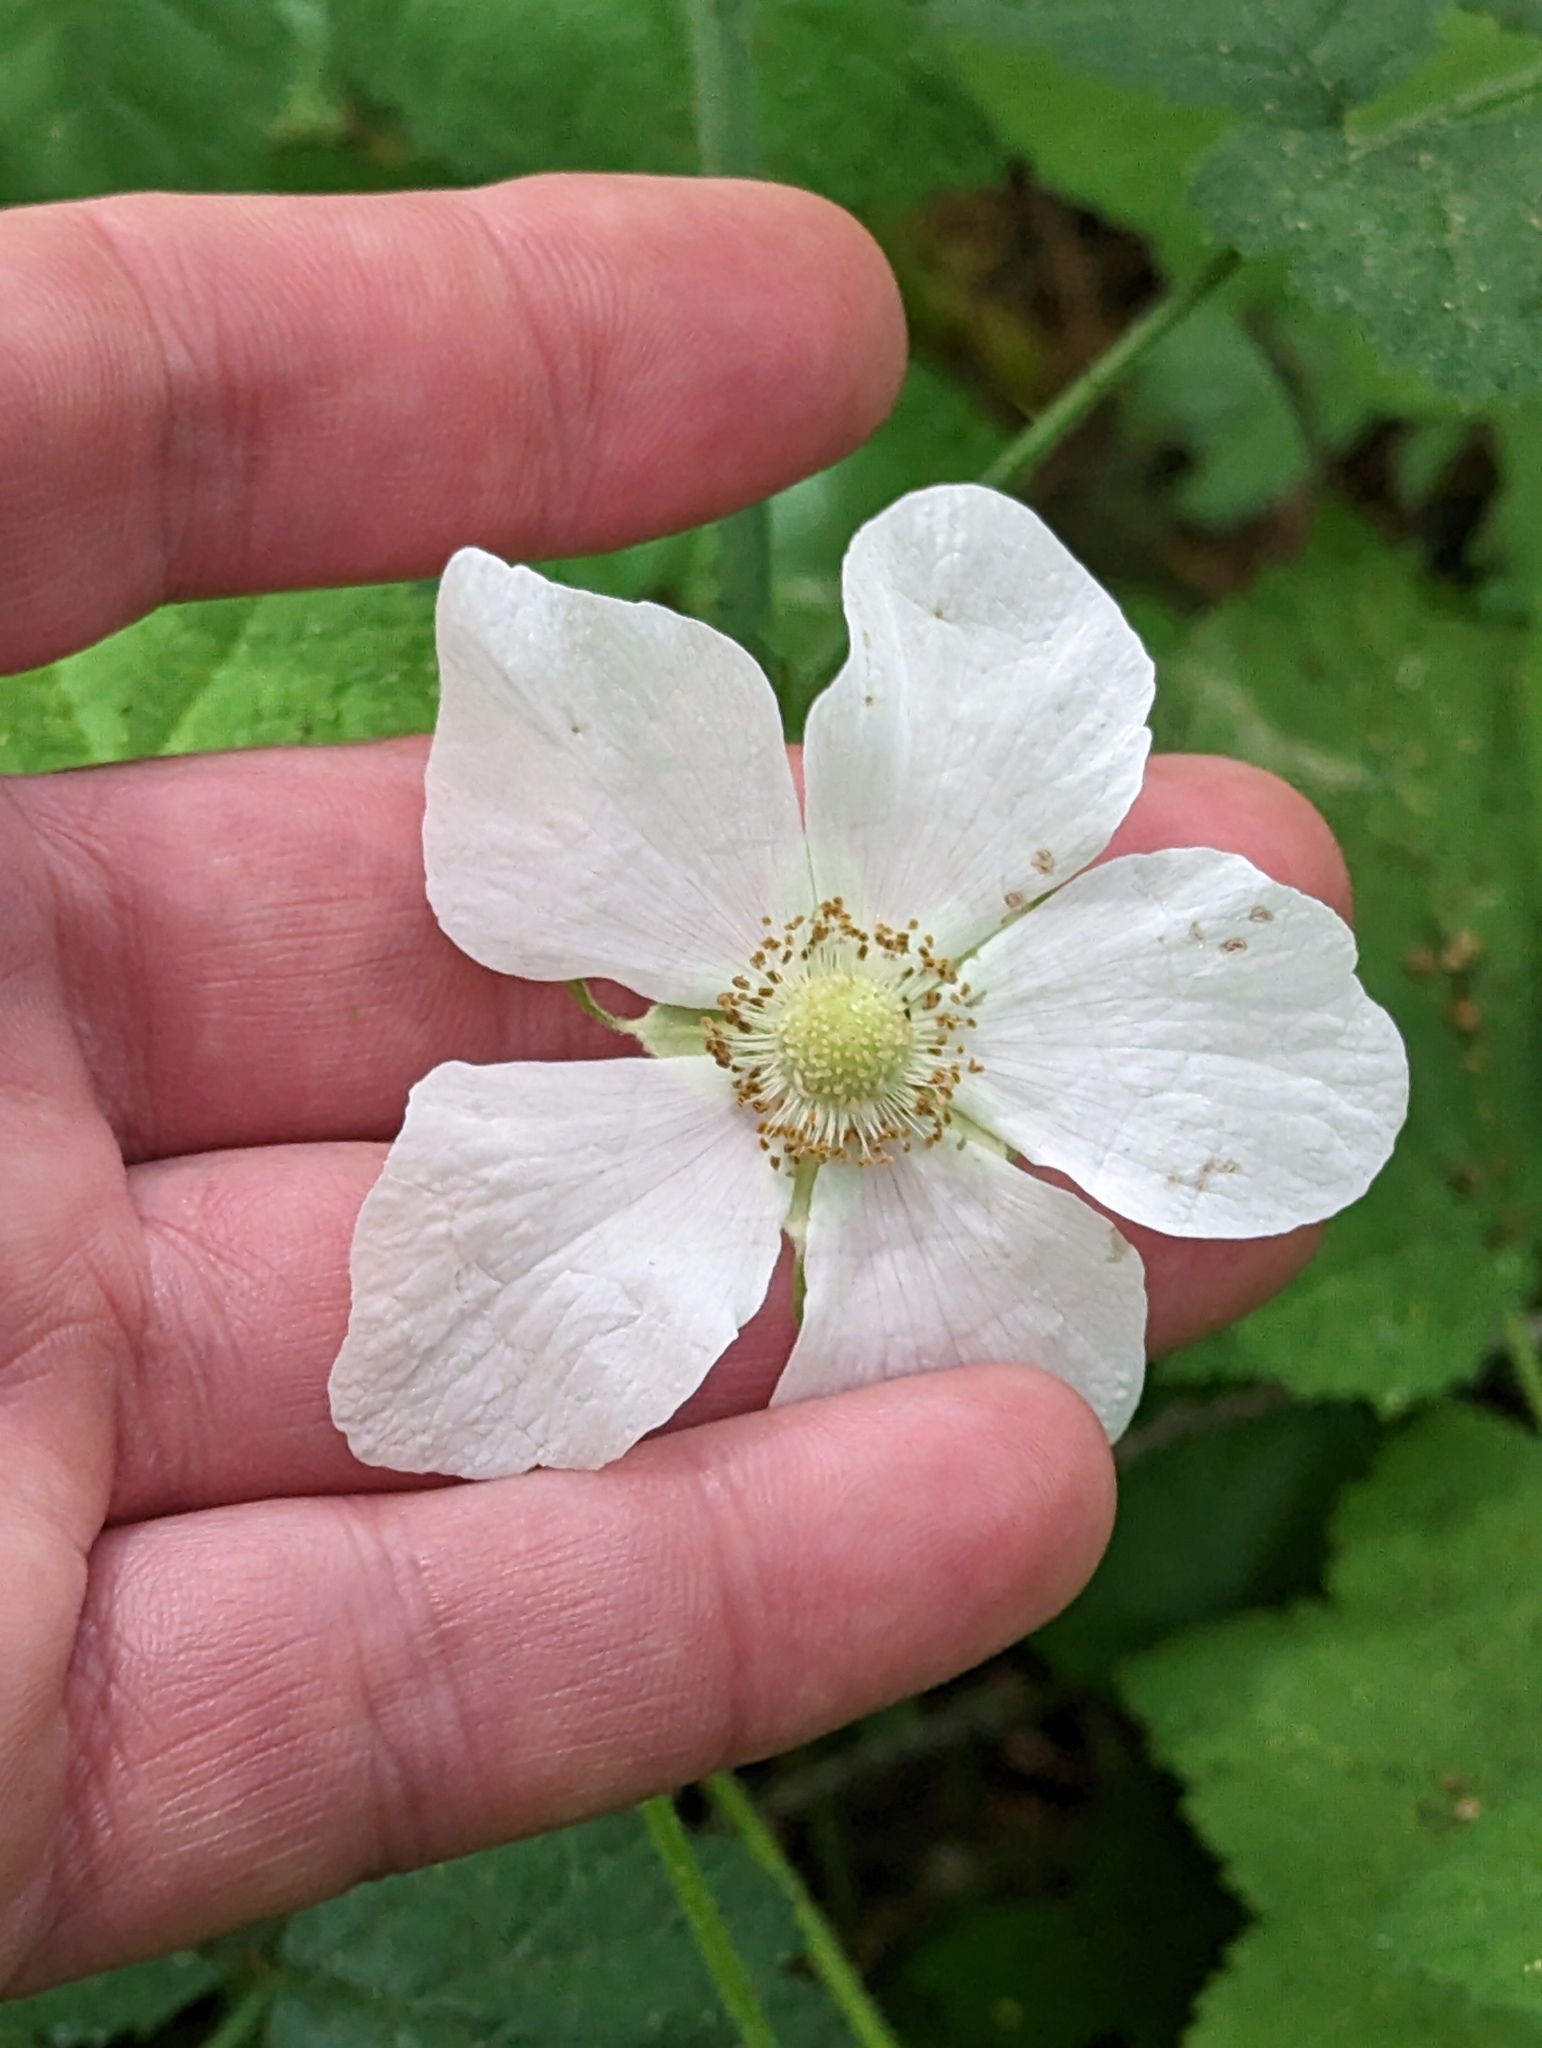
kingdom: Plantae
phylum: Tracheophyta
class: Magnoliopsida
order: Rosales
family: Rosaceae
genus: Rubus
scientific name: Rubus parviflorus
